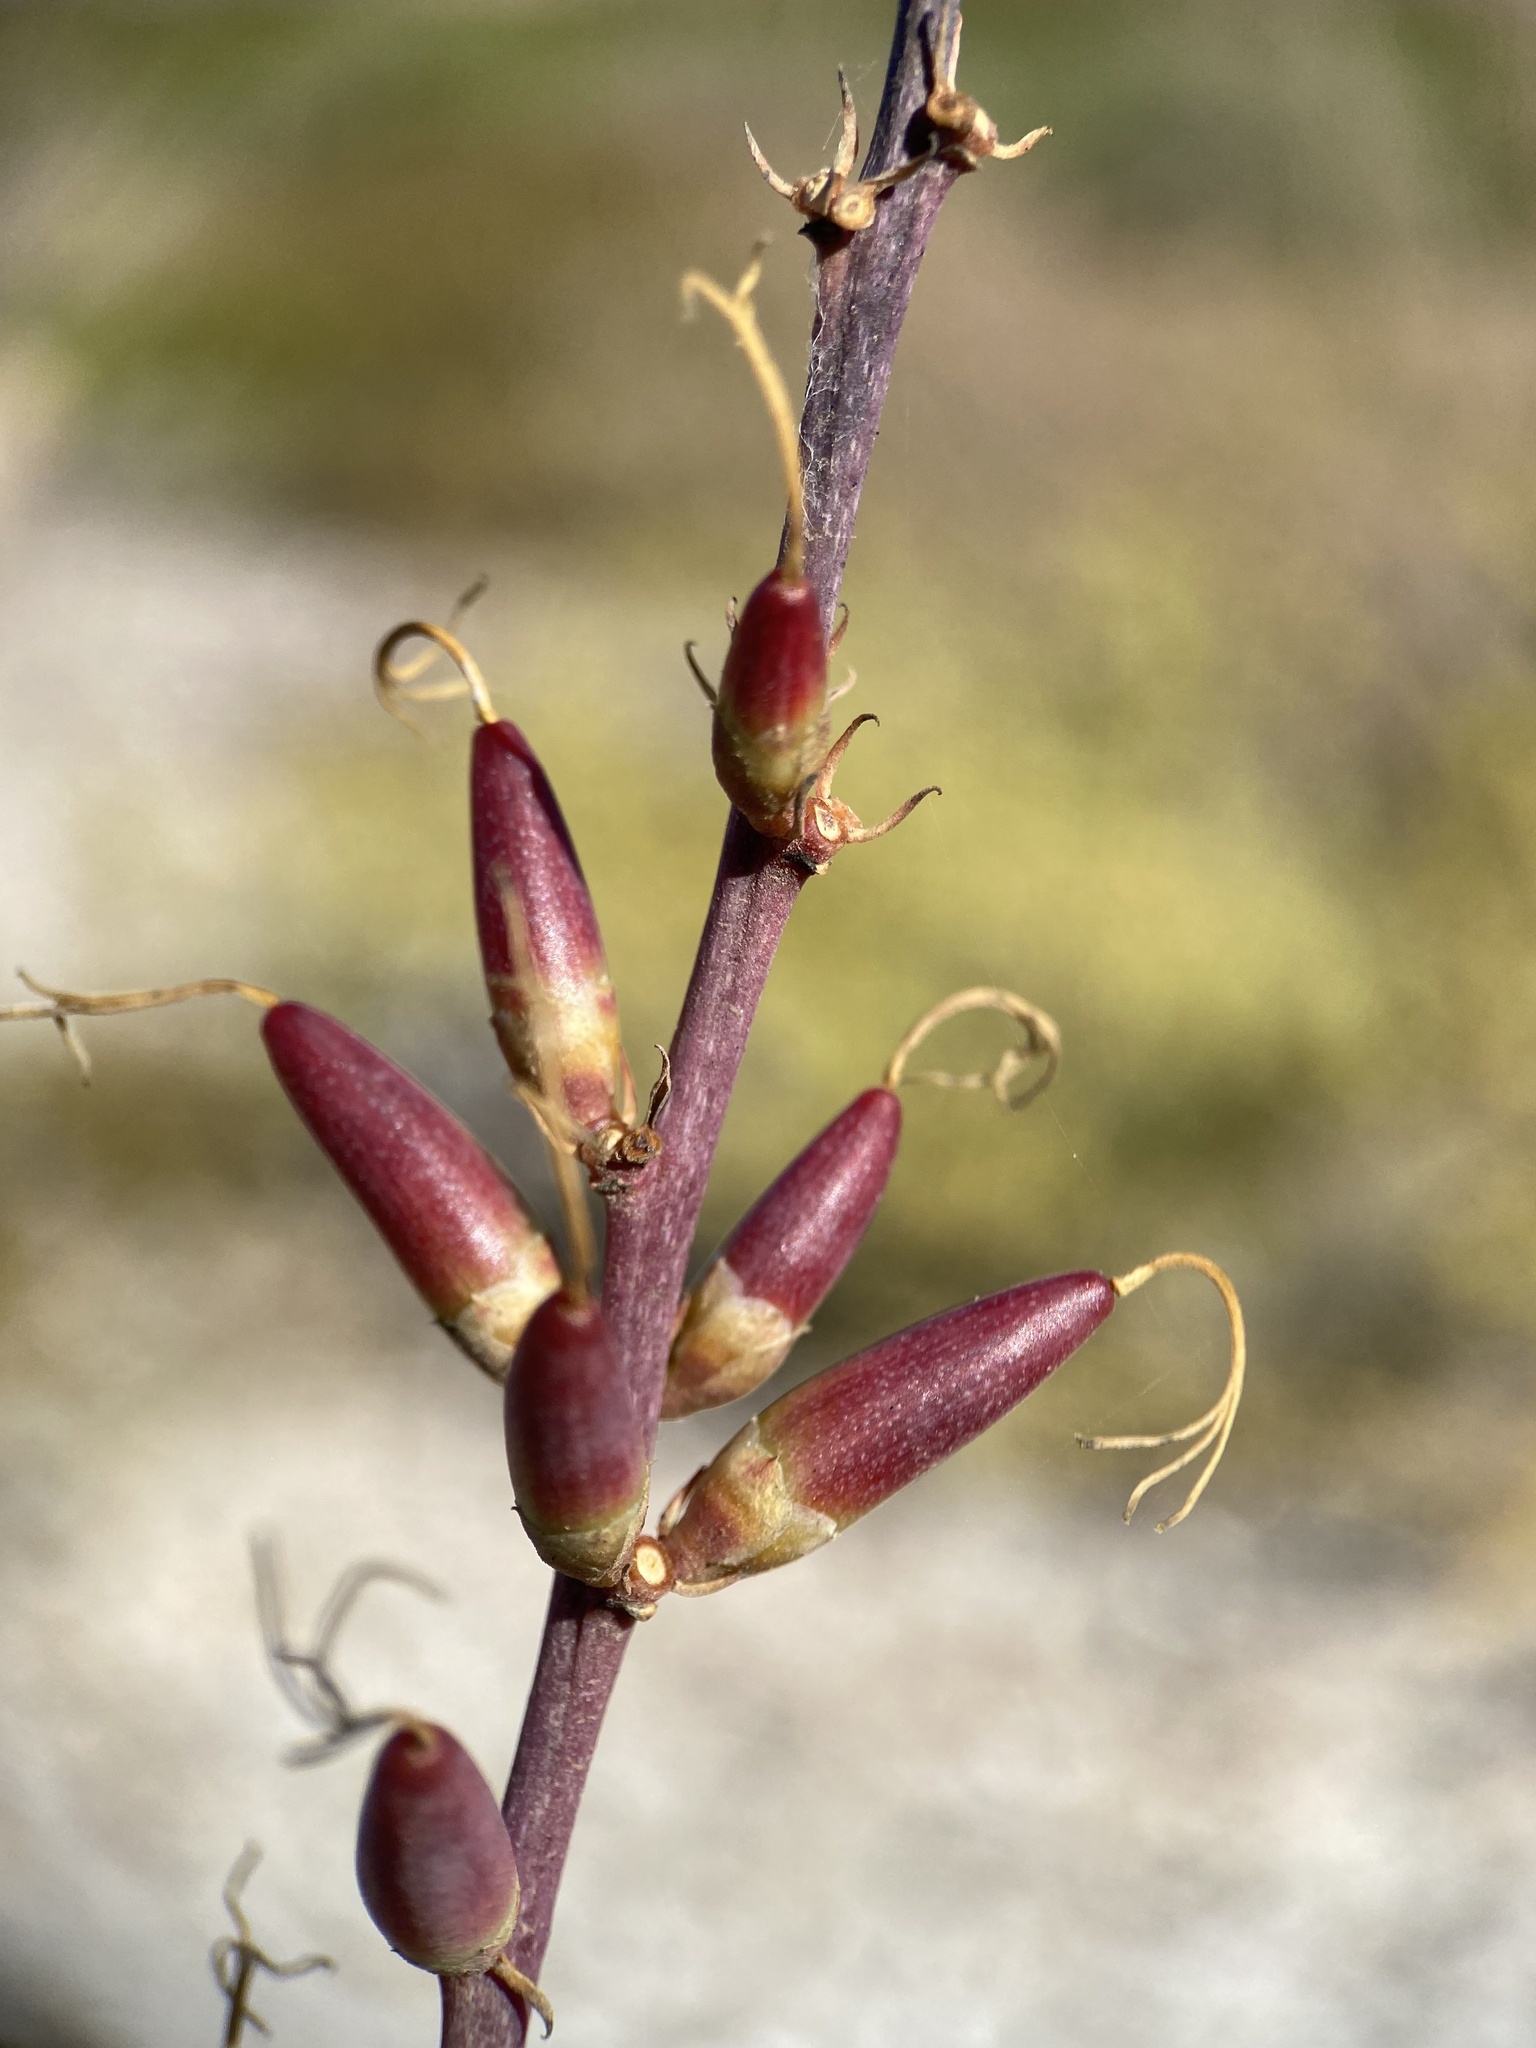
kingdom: Plantae
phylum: Tracheophyta
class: Magnoliopsida
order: Ericales
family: Fouquieriaceae
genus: Fouquieria
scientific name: Fouquieria diguetii
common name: Adam's tree
